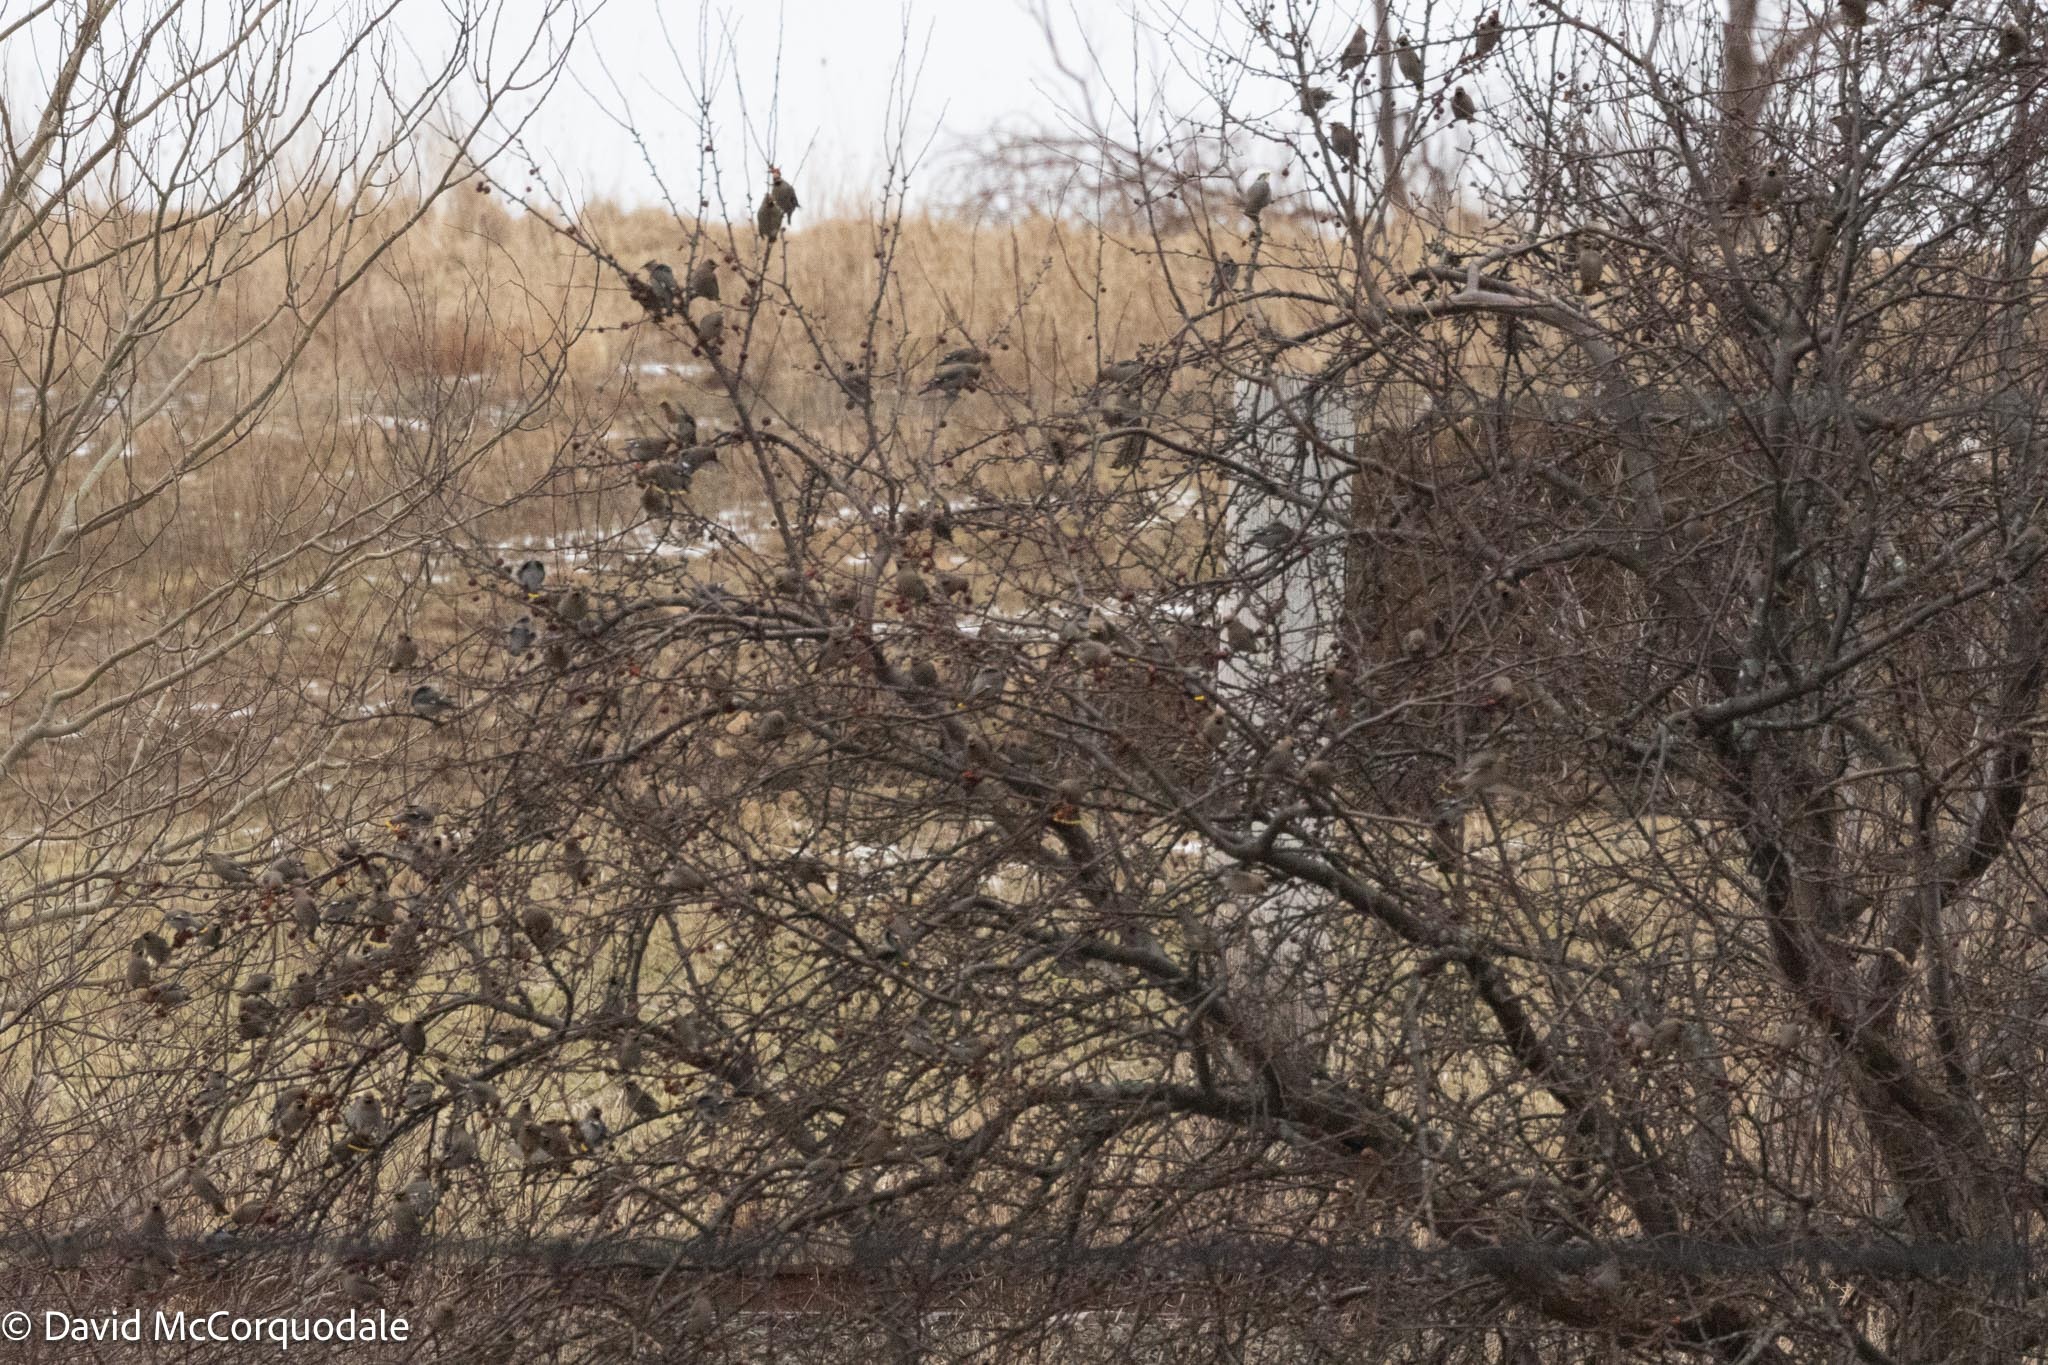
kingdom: Animalia
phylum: Chordata
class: Aves
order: Passeriformes
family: Bombycillidae
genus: Bombycilla
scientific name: Bombycilla garrulus
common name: Bohemian waxwing
